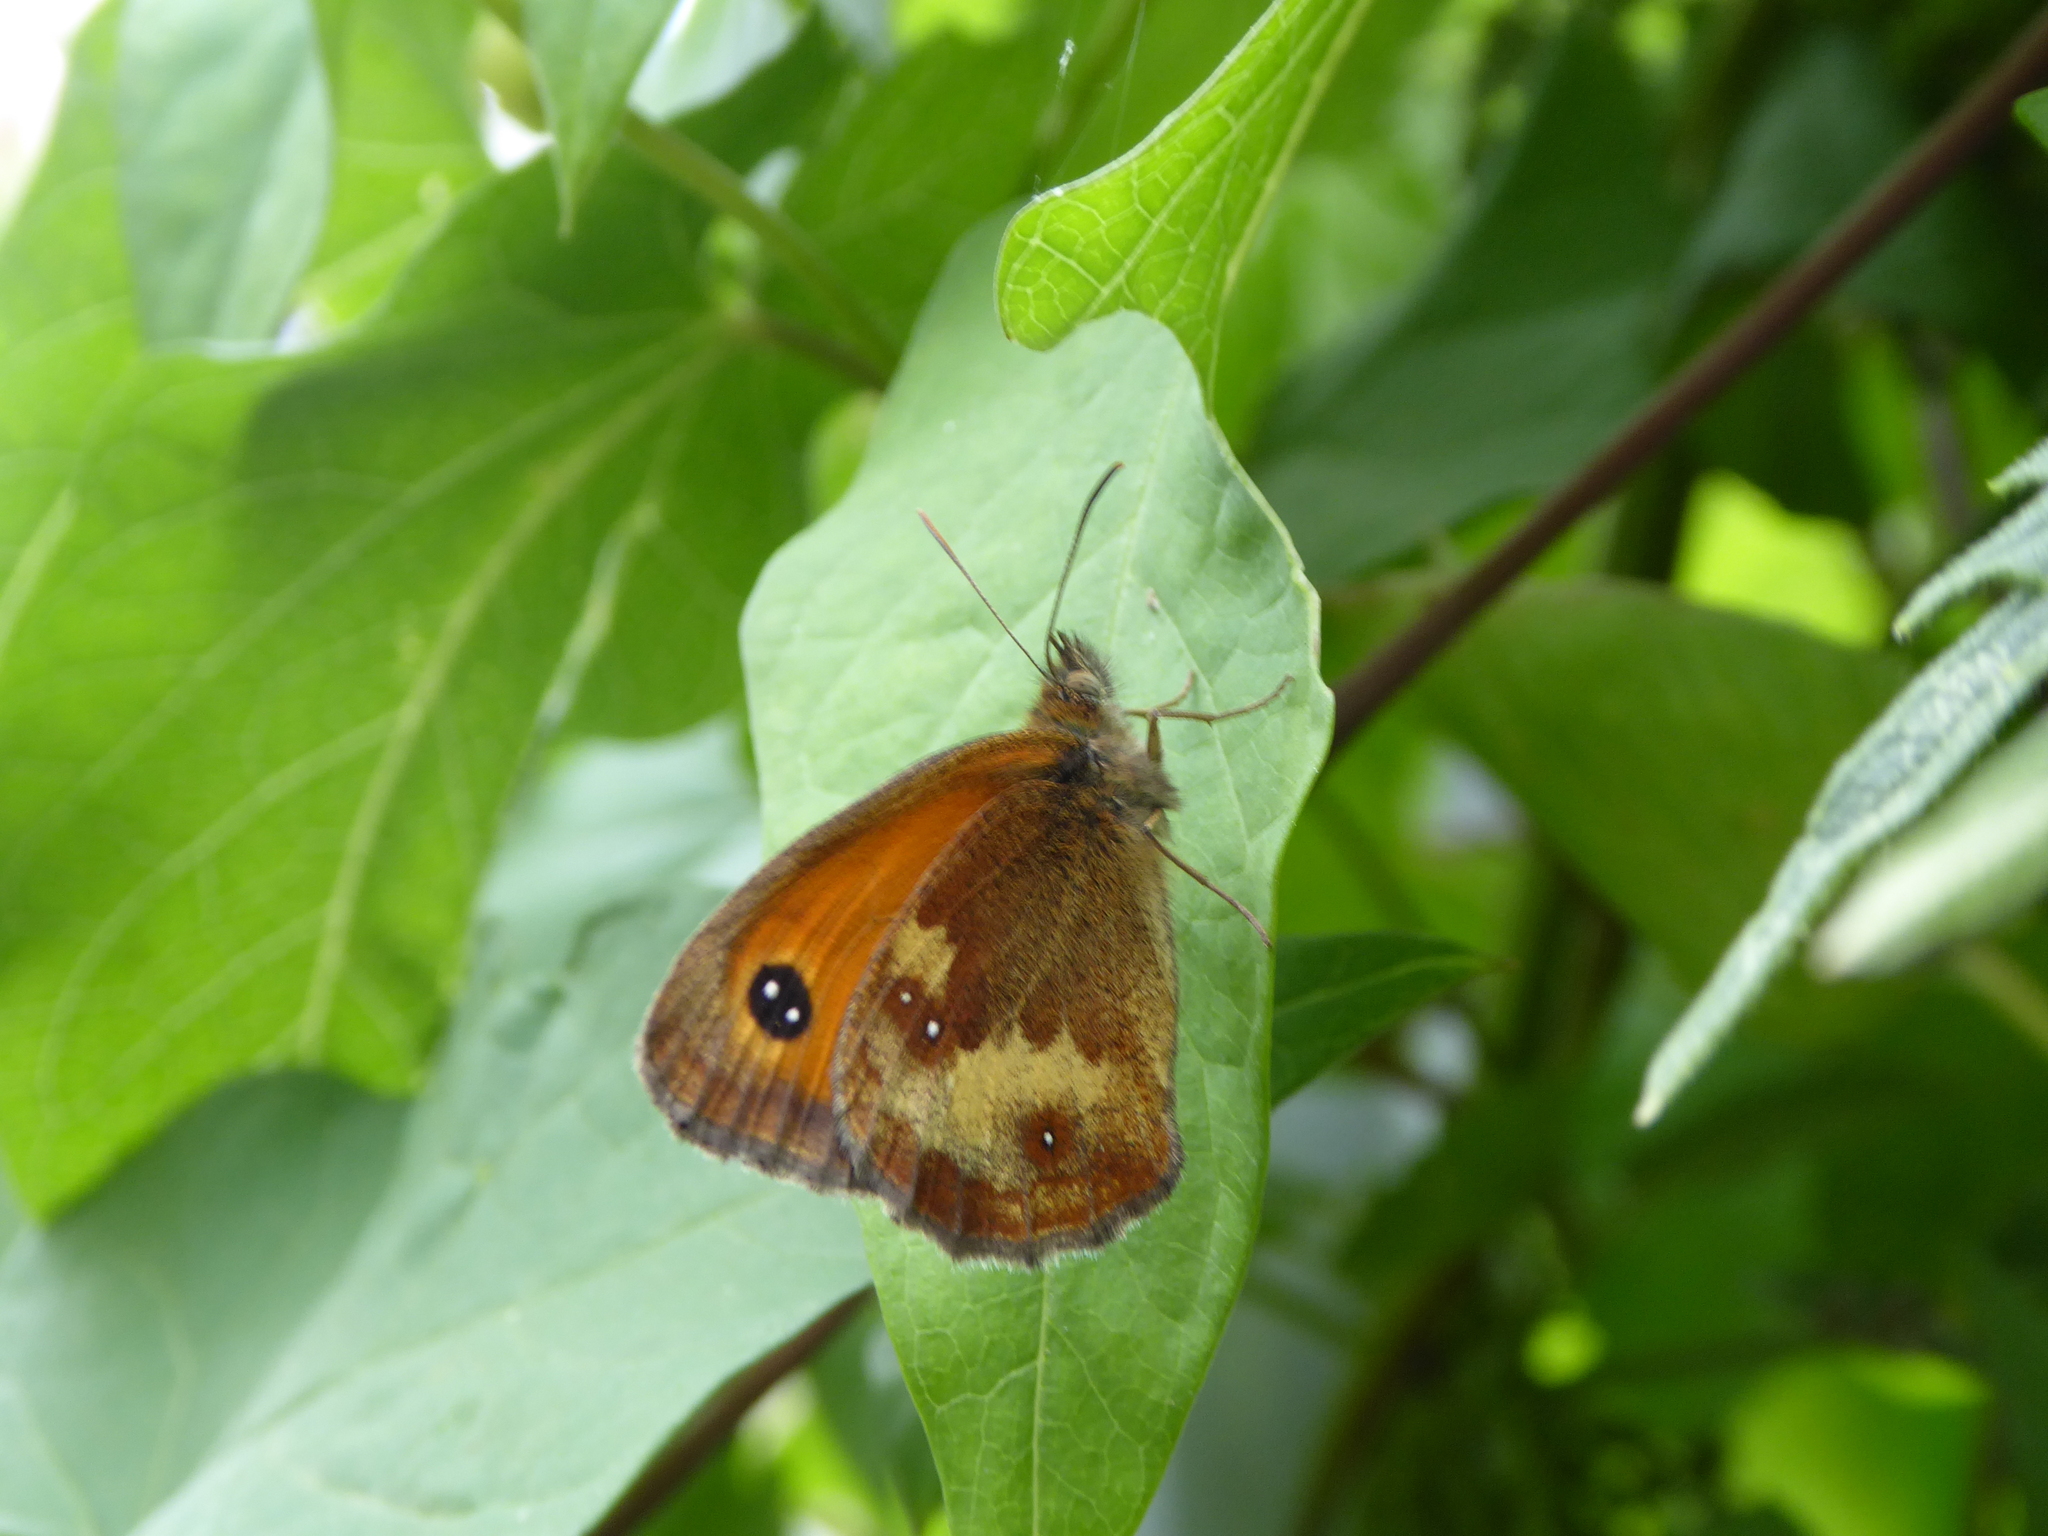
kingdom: Animalia
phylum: Arthropoda
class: Insecta
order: Lepidoptera
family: Nymphalidae
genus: Pyronia
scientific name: Pyronia tithonus
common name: Gatekeeper
